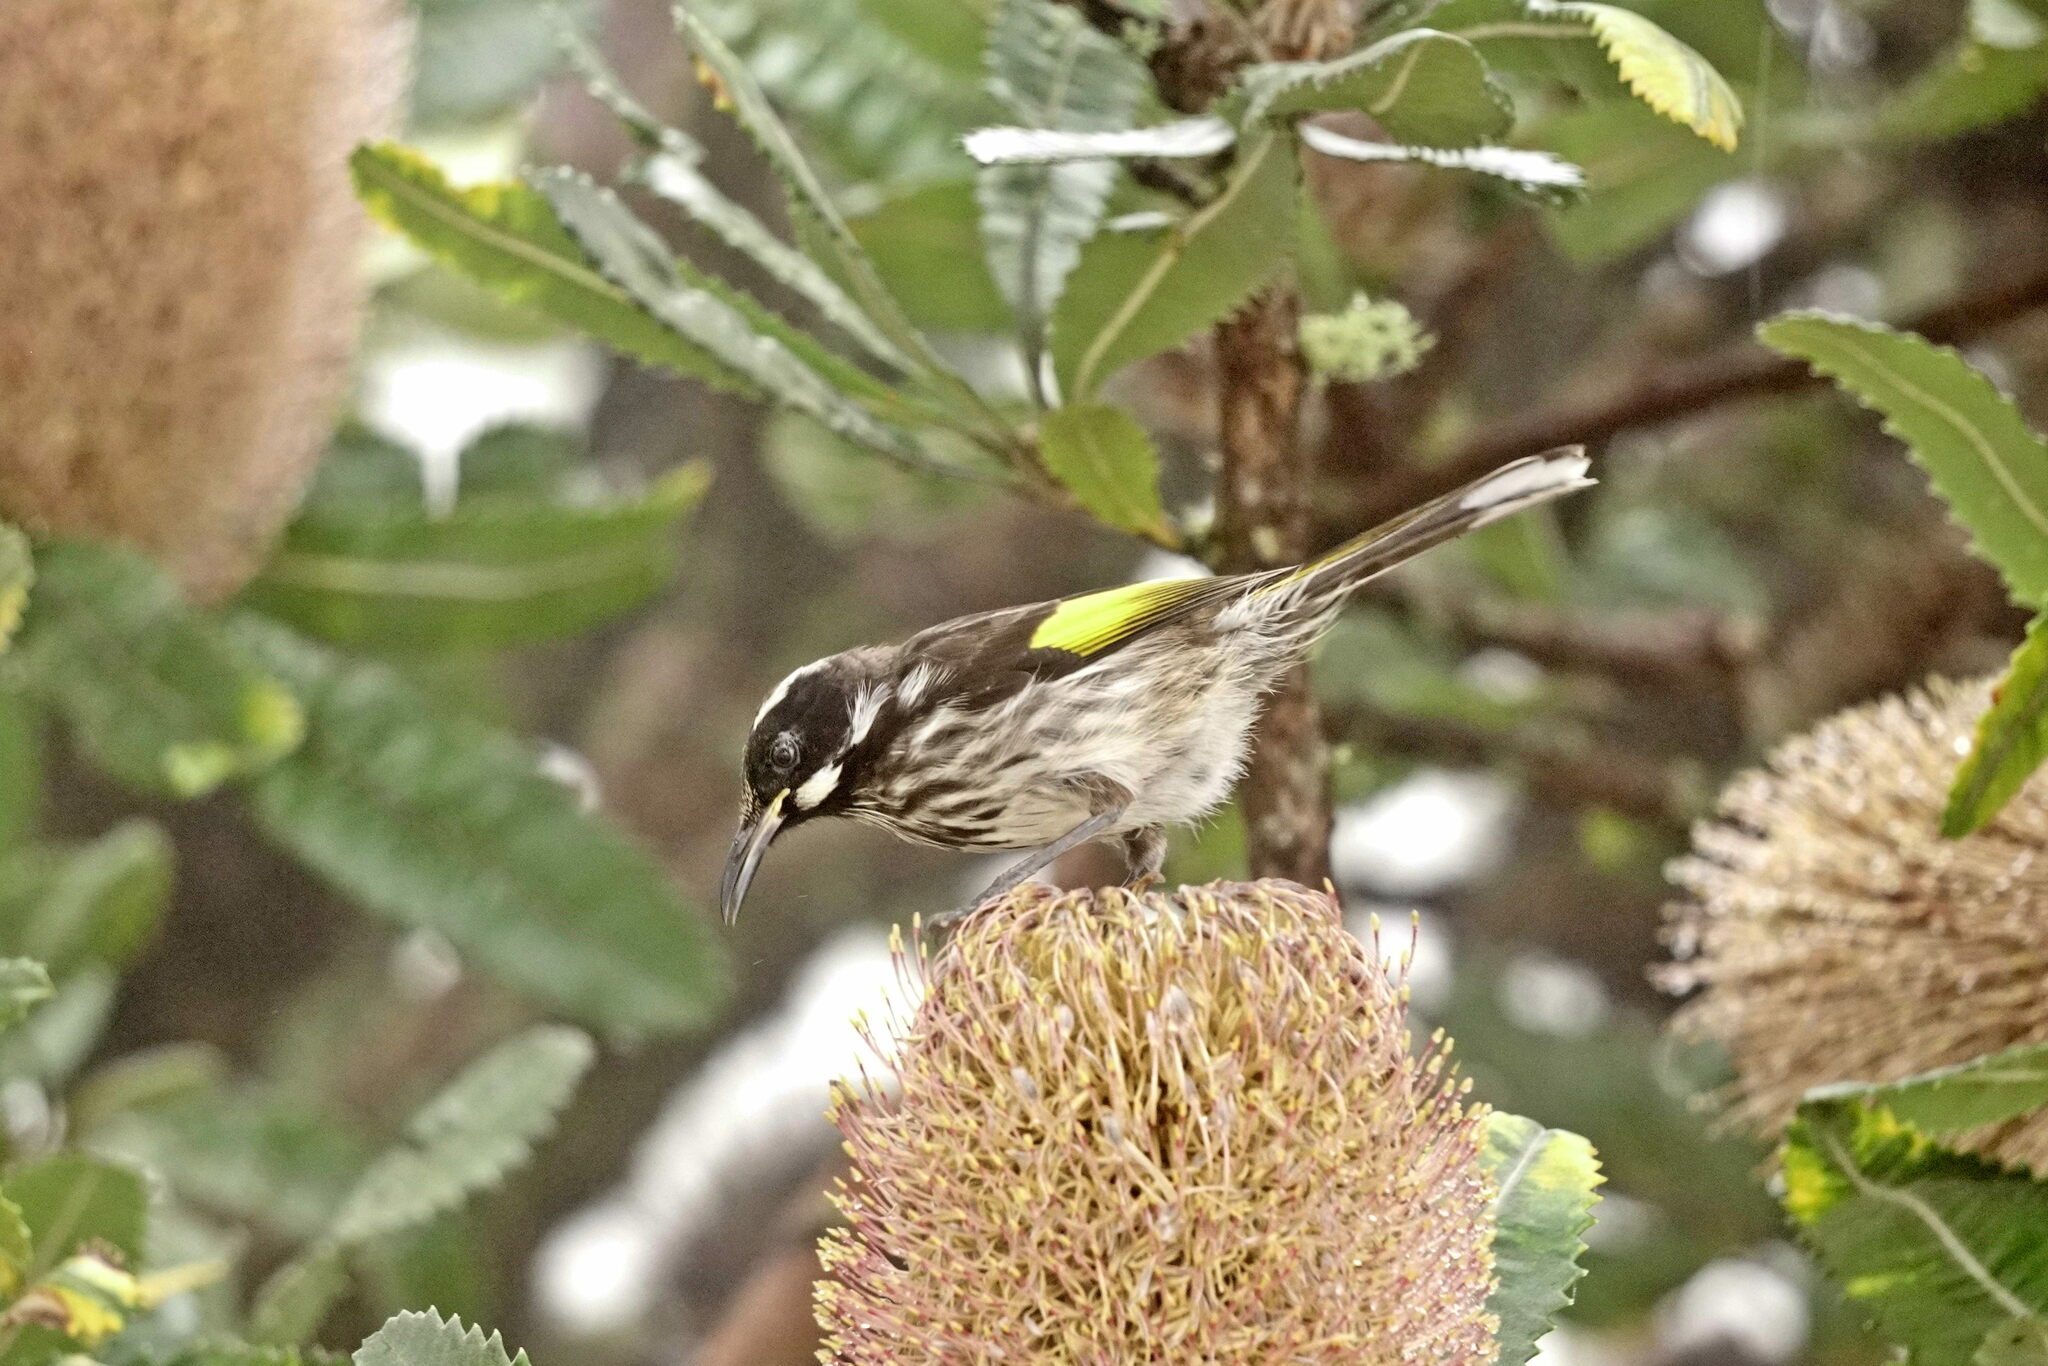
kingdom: Animalia
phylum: Chordata
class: Aves
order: Passeriformes
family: Meliphagidae
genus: Phylidonyris
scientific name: Phylidonyris novaehollandiae
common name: New holland honeyeater
